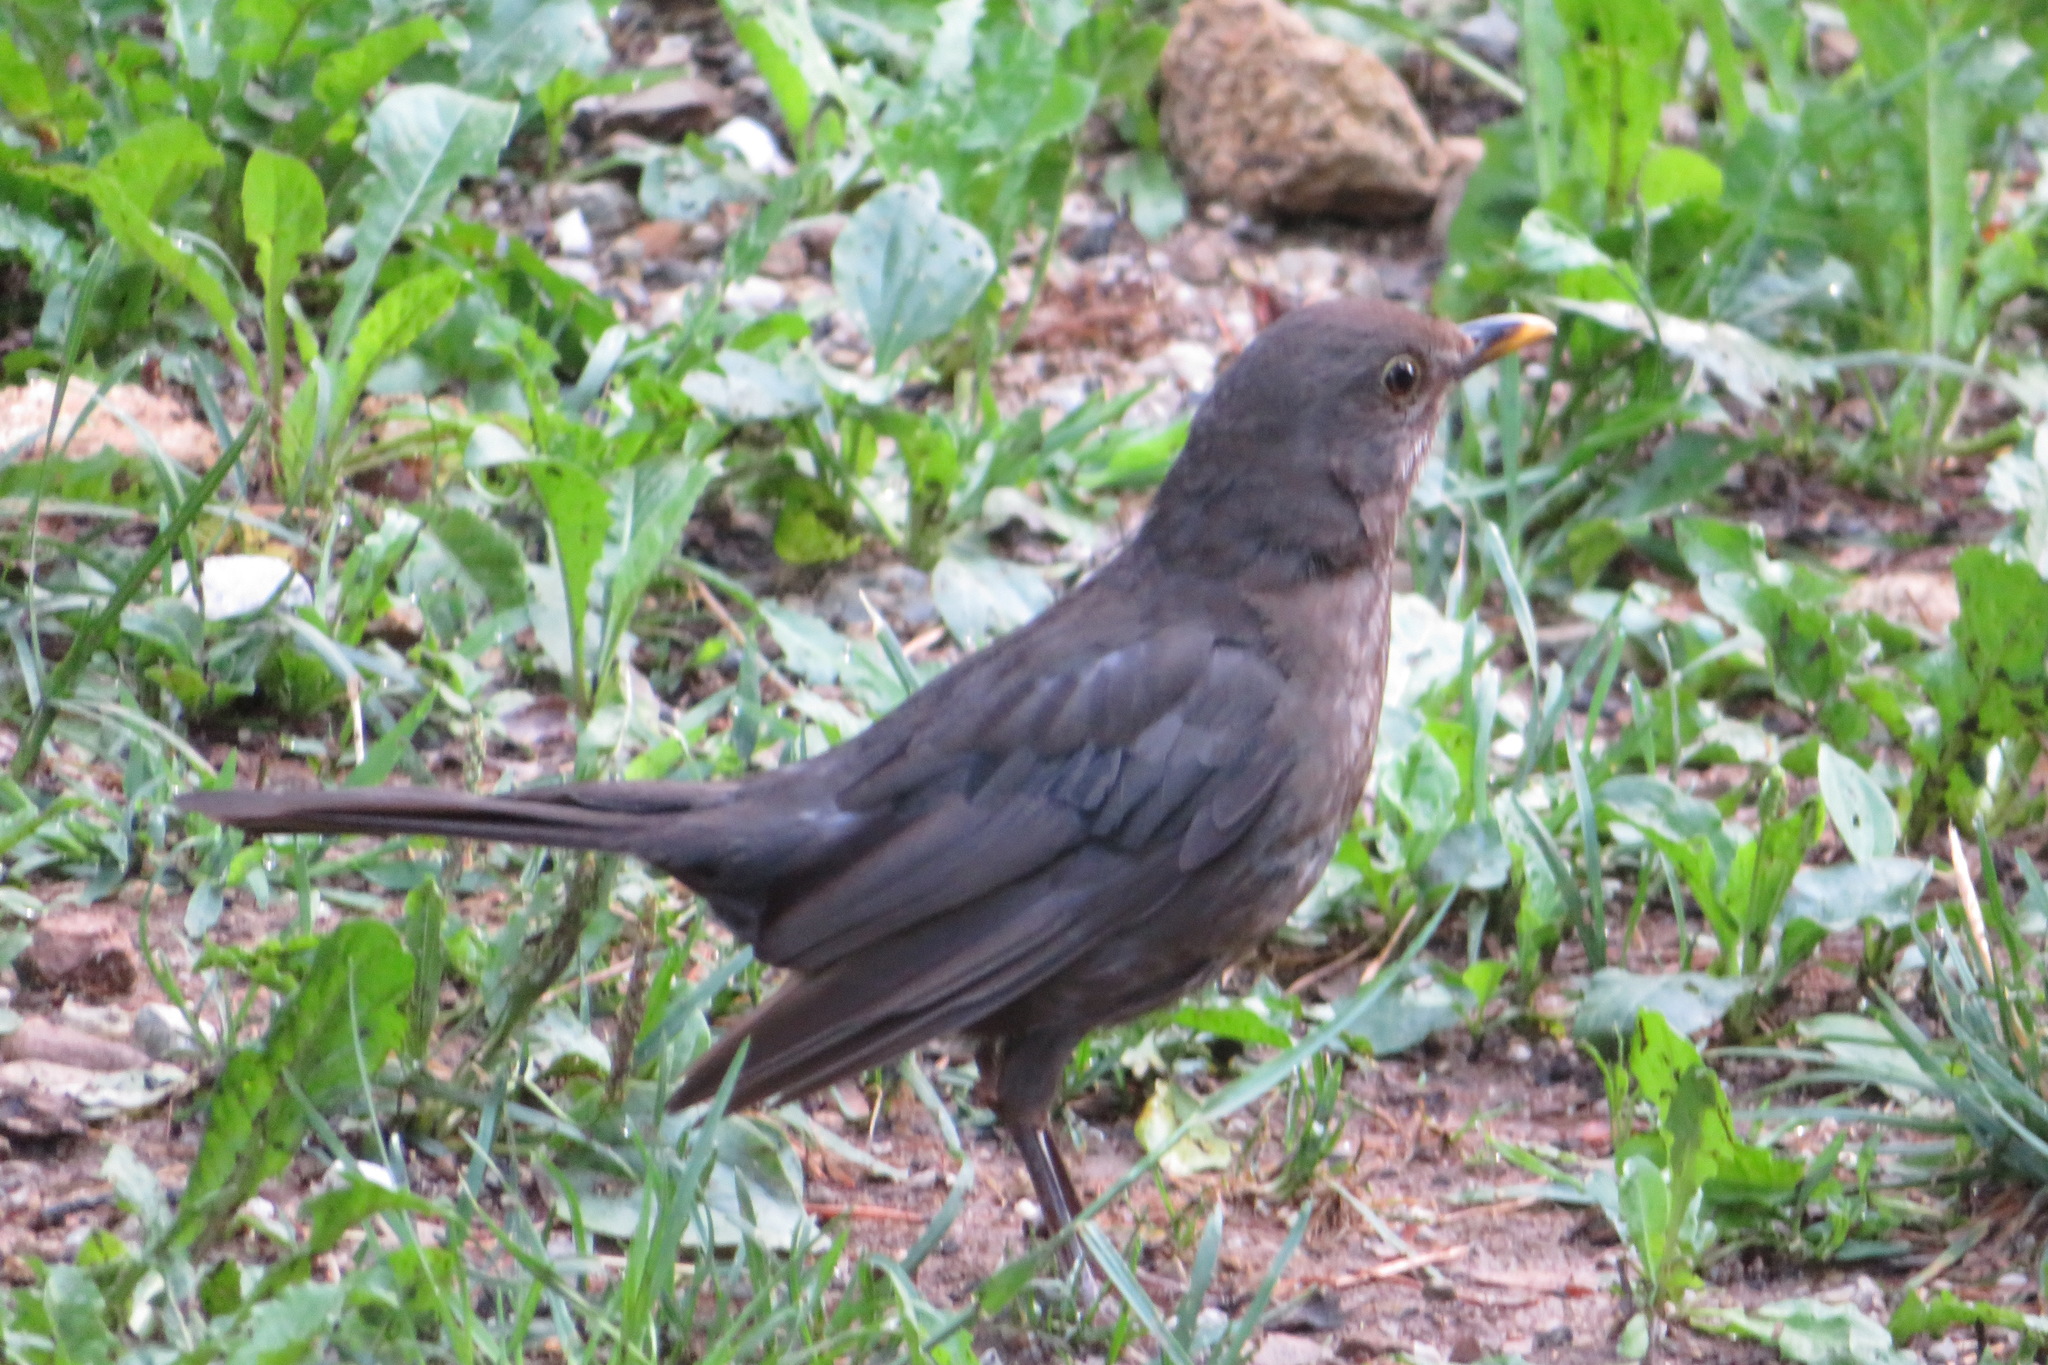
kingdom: Animalia
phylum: Chordata
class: Aves
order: Passeriformes
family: Turdidae
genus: Turdus
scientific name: Turdus merula
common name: Common blackbird
